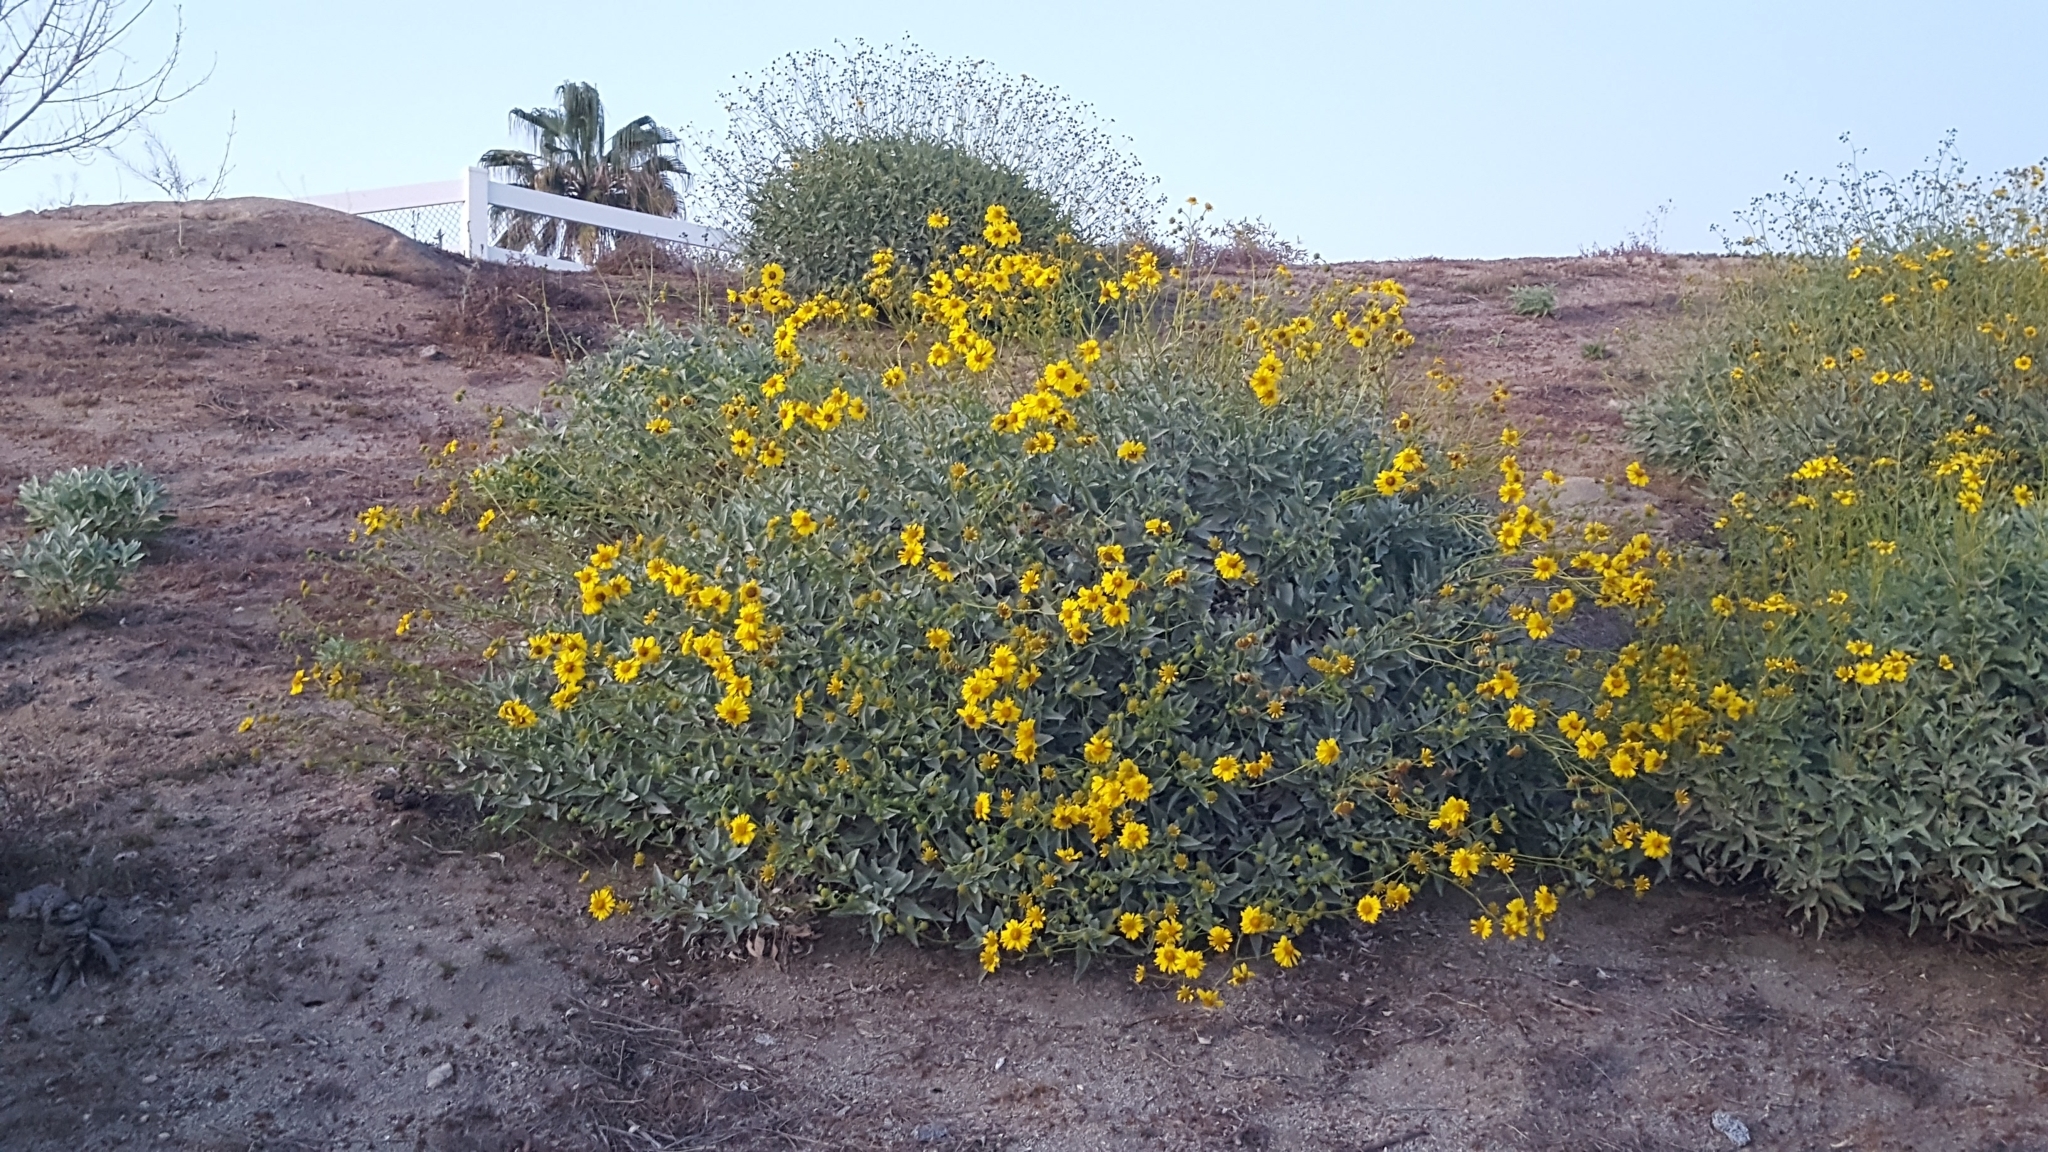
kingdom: Plantae
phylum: Tracheophyta
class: Magnoliopsida
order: Asterales
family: Asteraceae
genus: Encelia
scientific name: Encelia farinosa
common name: Brittlebush
